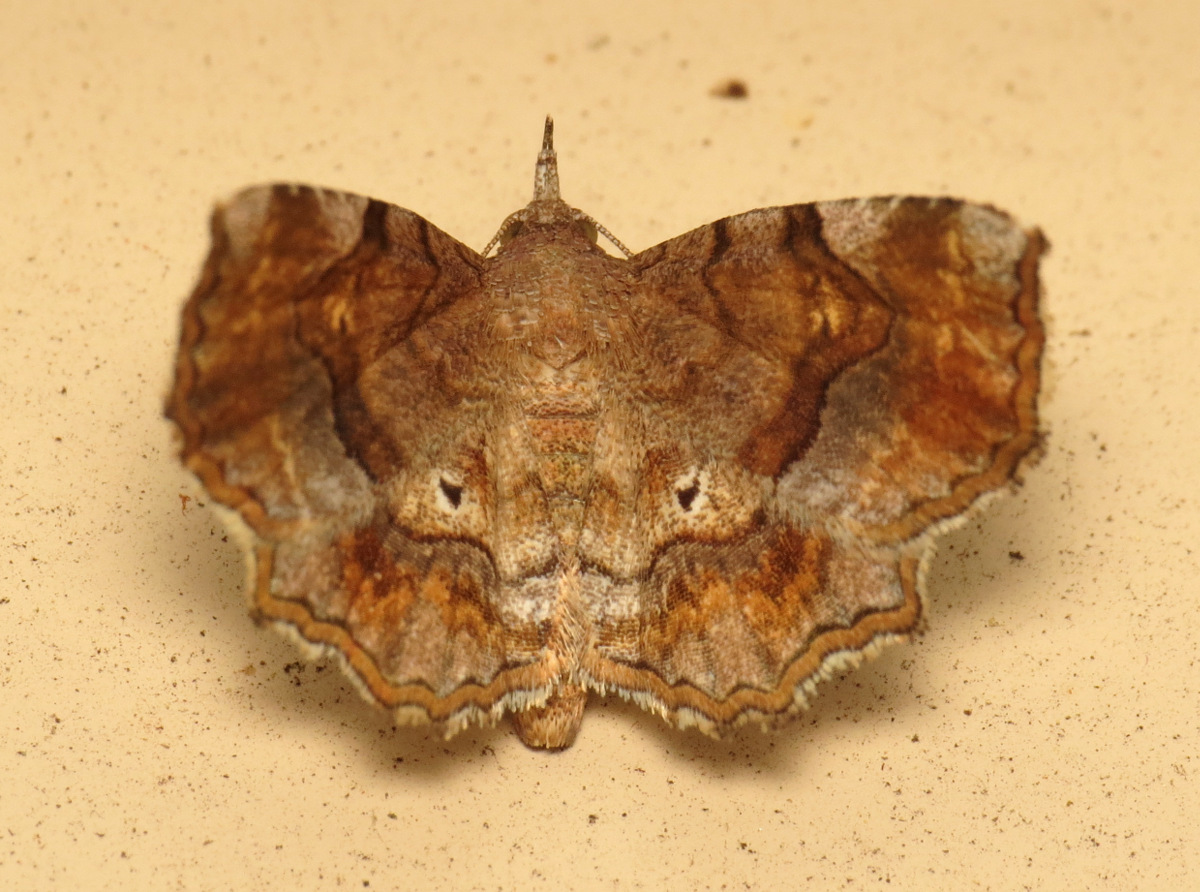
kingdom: Animalia
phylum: Arthropoda
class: Insecta
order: Lepidoptera
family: Erebidae
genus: Pangrapta
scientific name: Pangrapta decoralis
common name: Decorated owlet
